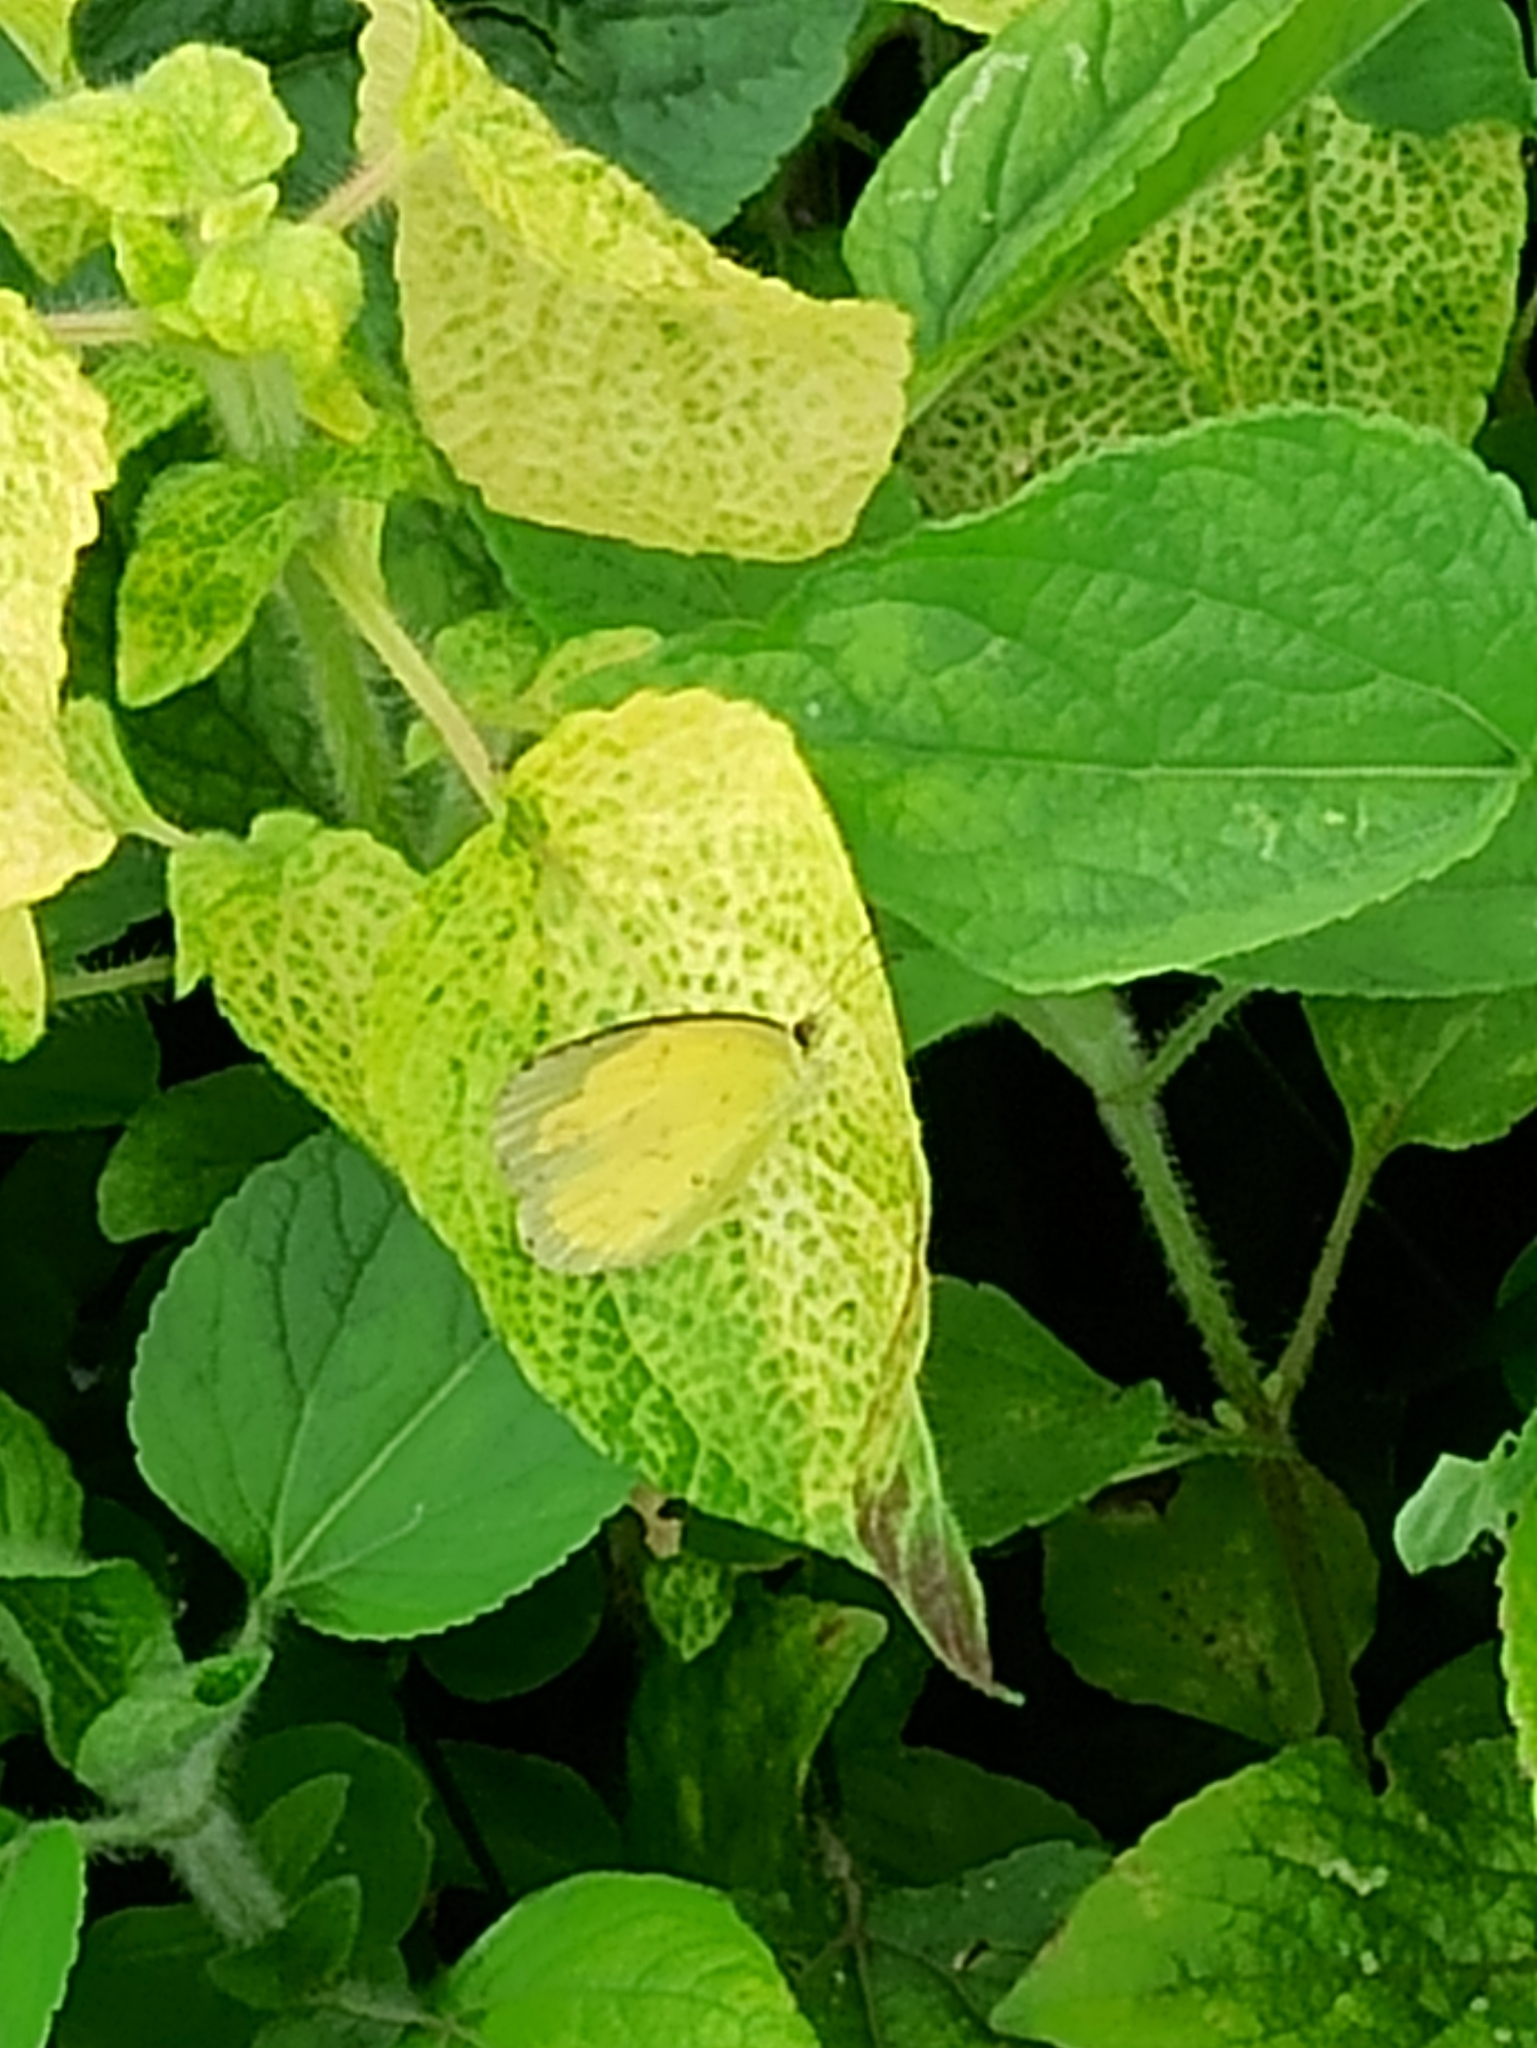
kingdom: Animalia
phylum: Arthropoda
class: Insecta
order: Lepidoptera
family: Pieridae
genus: Eurema
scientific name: Eurema hecabe
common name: Pale grass yellow
